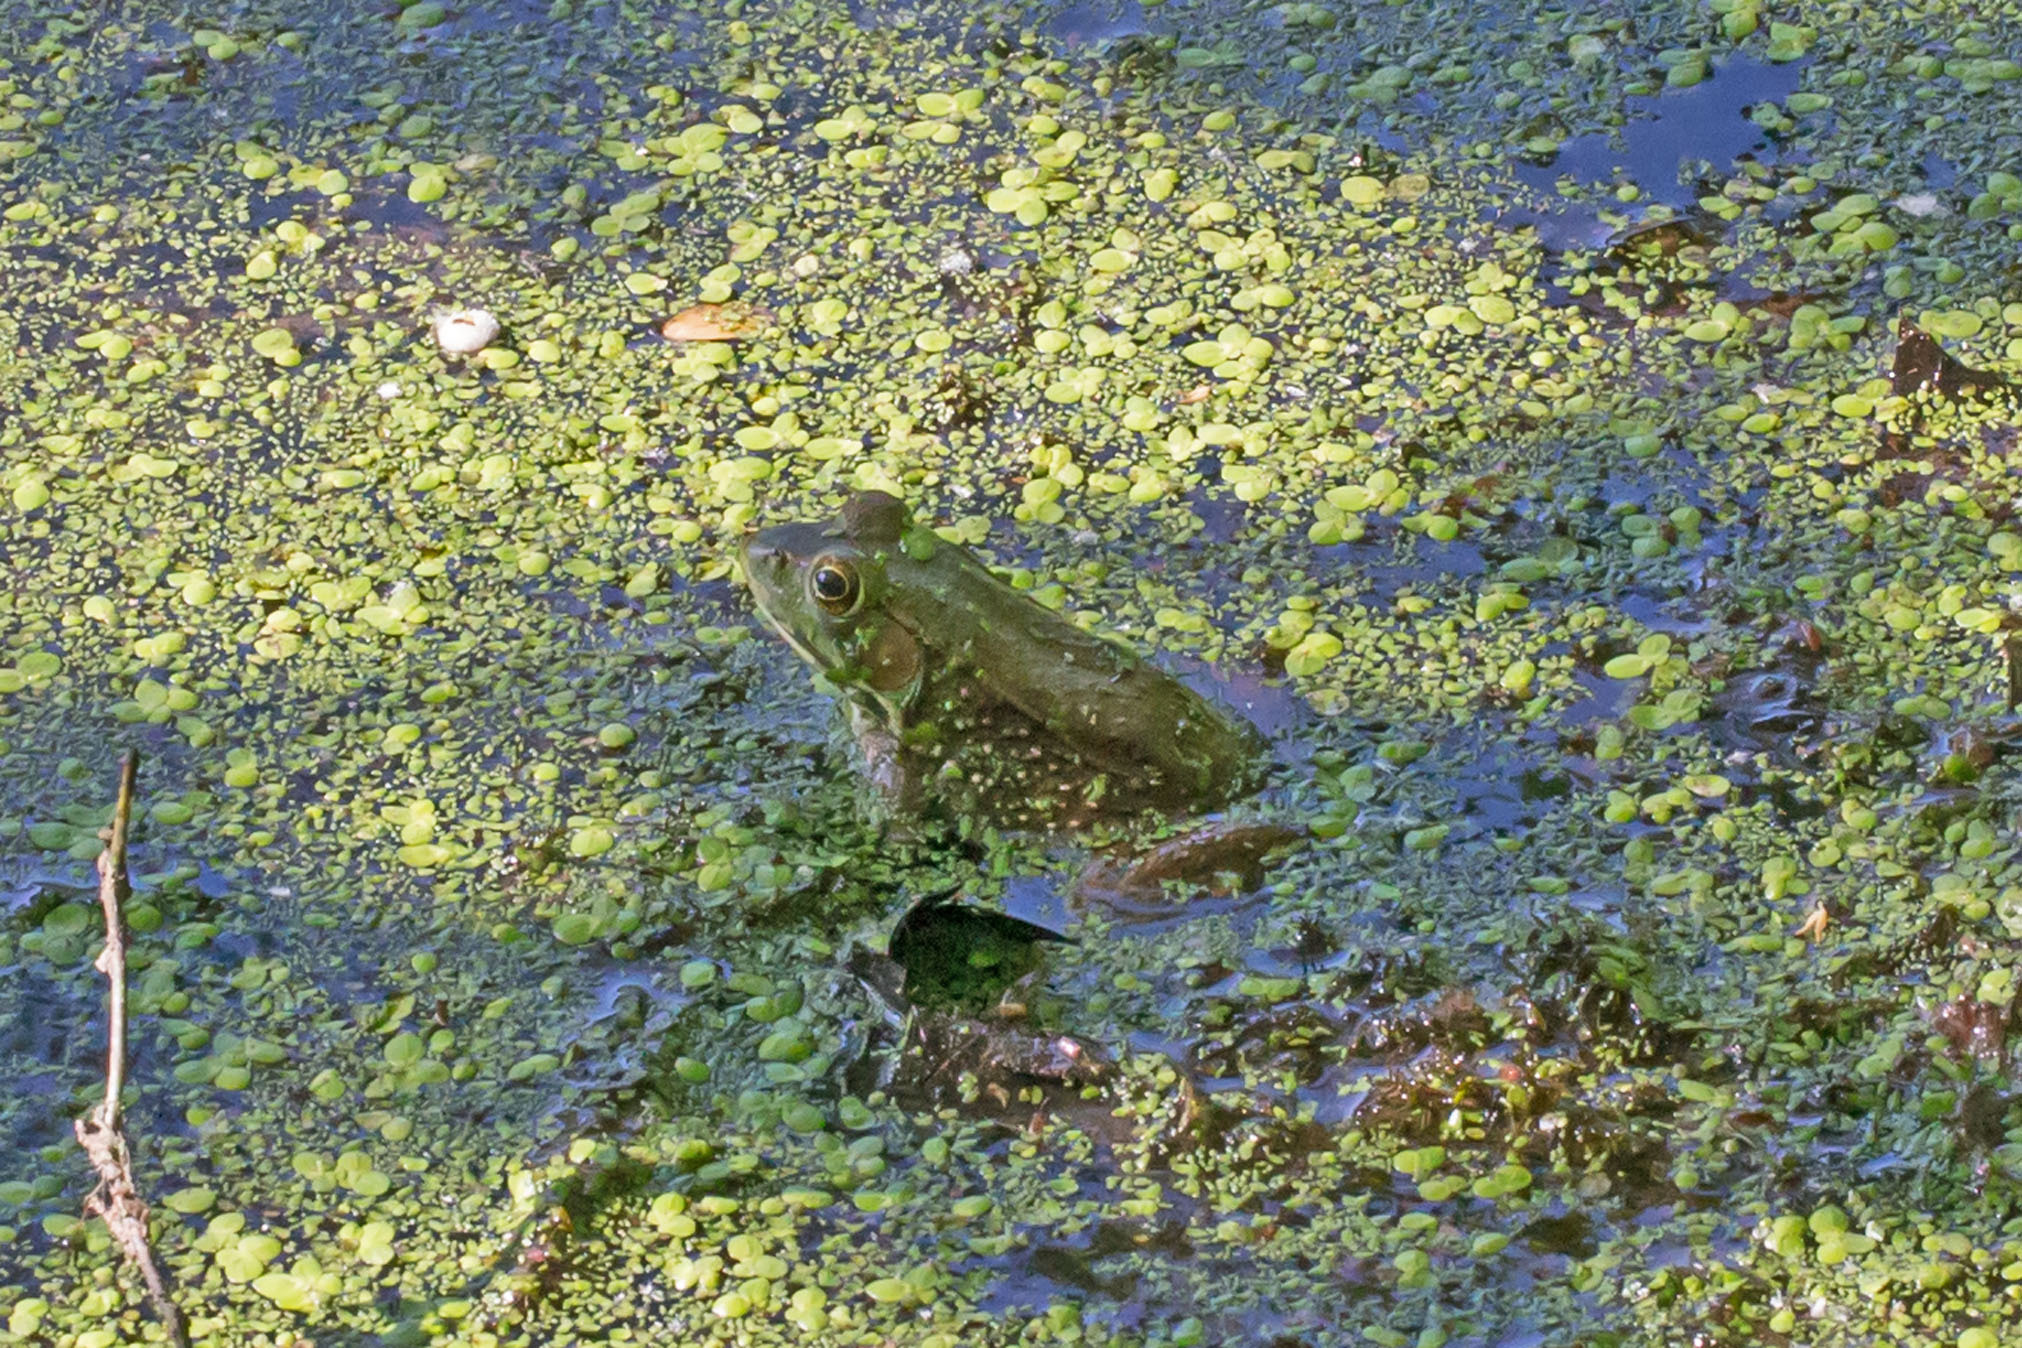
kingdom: Animalia
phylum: Chordata
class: Amphibia
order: Anura
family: Ranidae
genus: Lithobates
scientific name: Lithobates clamitans
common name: Green frog
